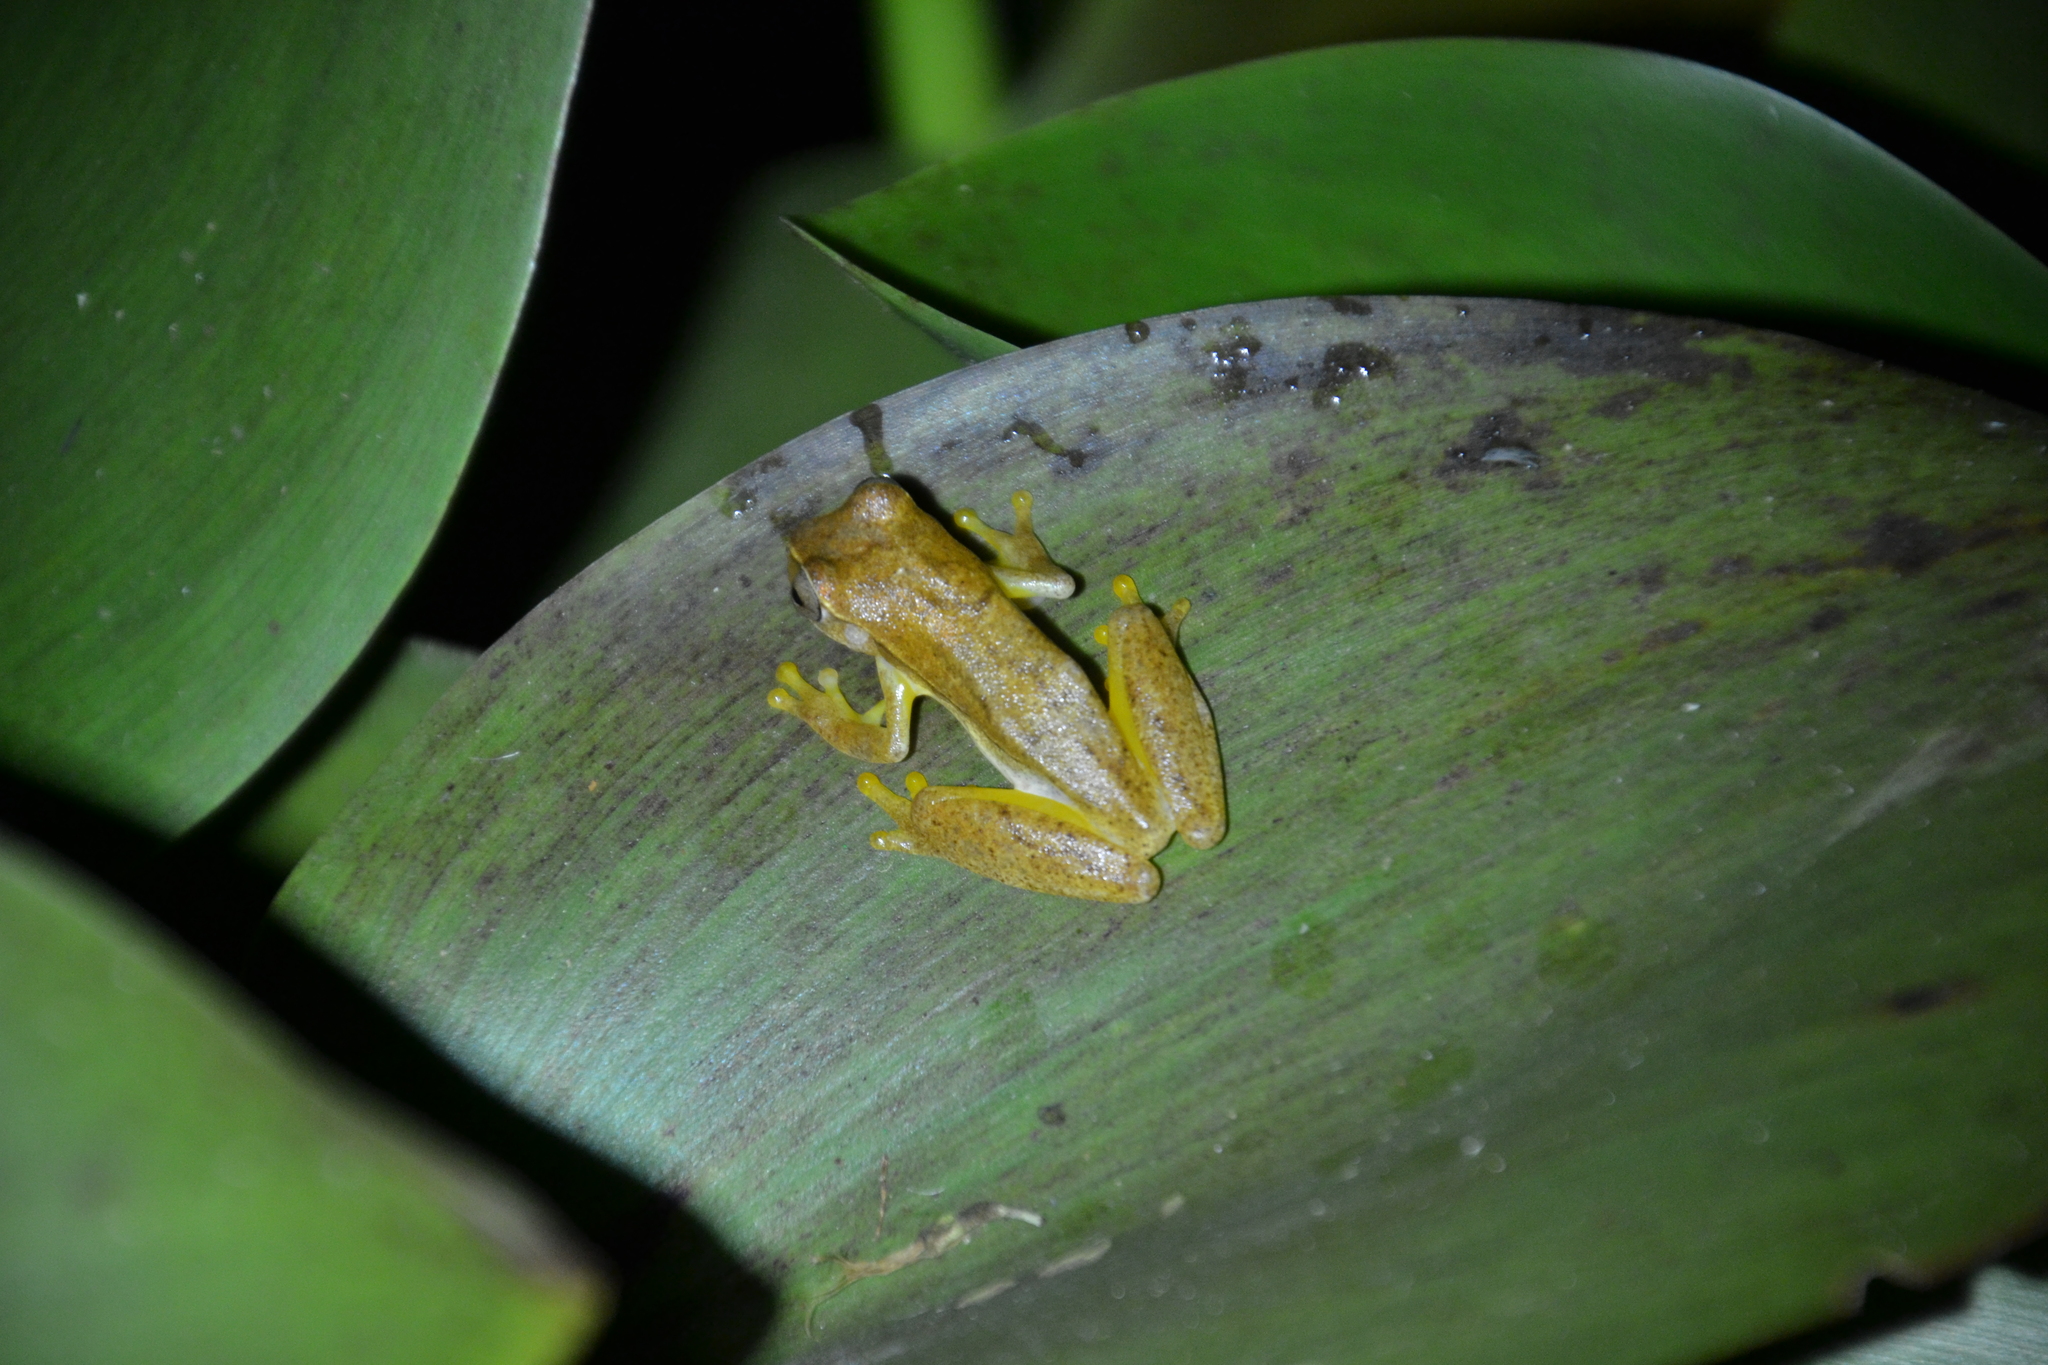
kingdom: Animalia
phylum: Chordata
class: Amphibia
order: Anura
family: Hylidae
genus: Dendropsophus
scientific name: Dendropsophus microcephalus
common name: Small-headed treefrog
